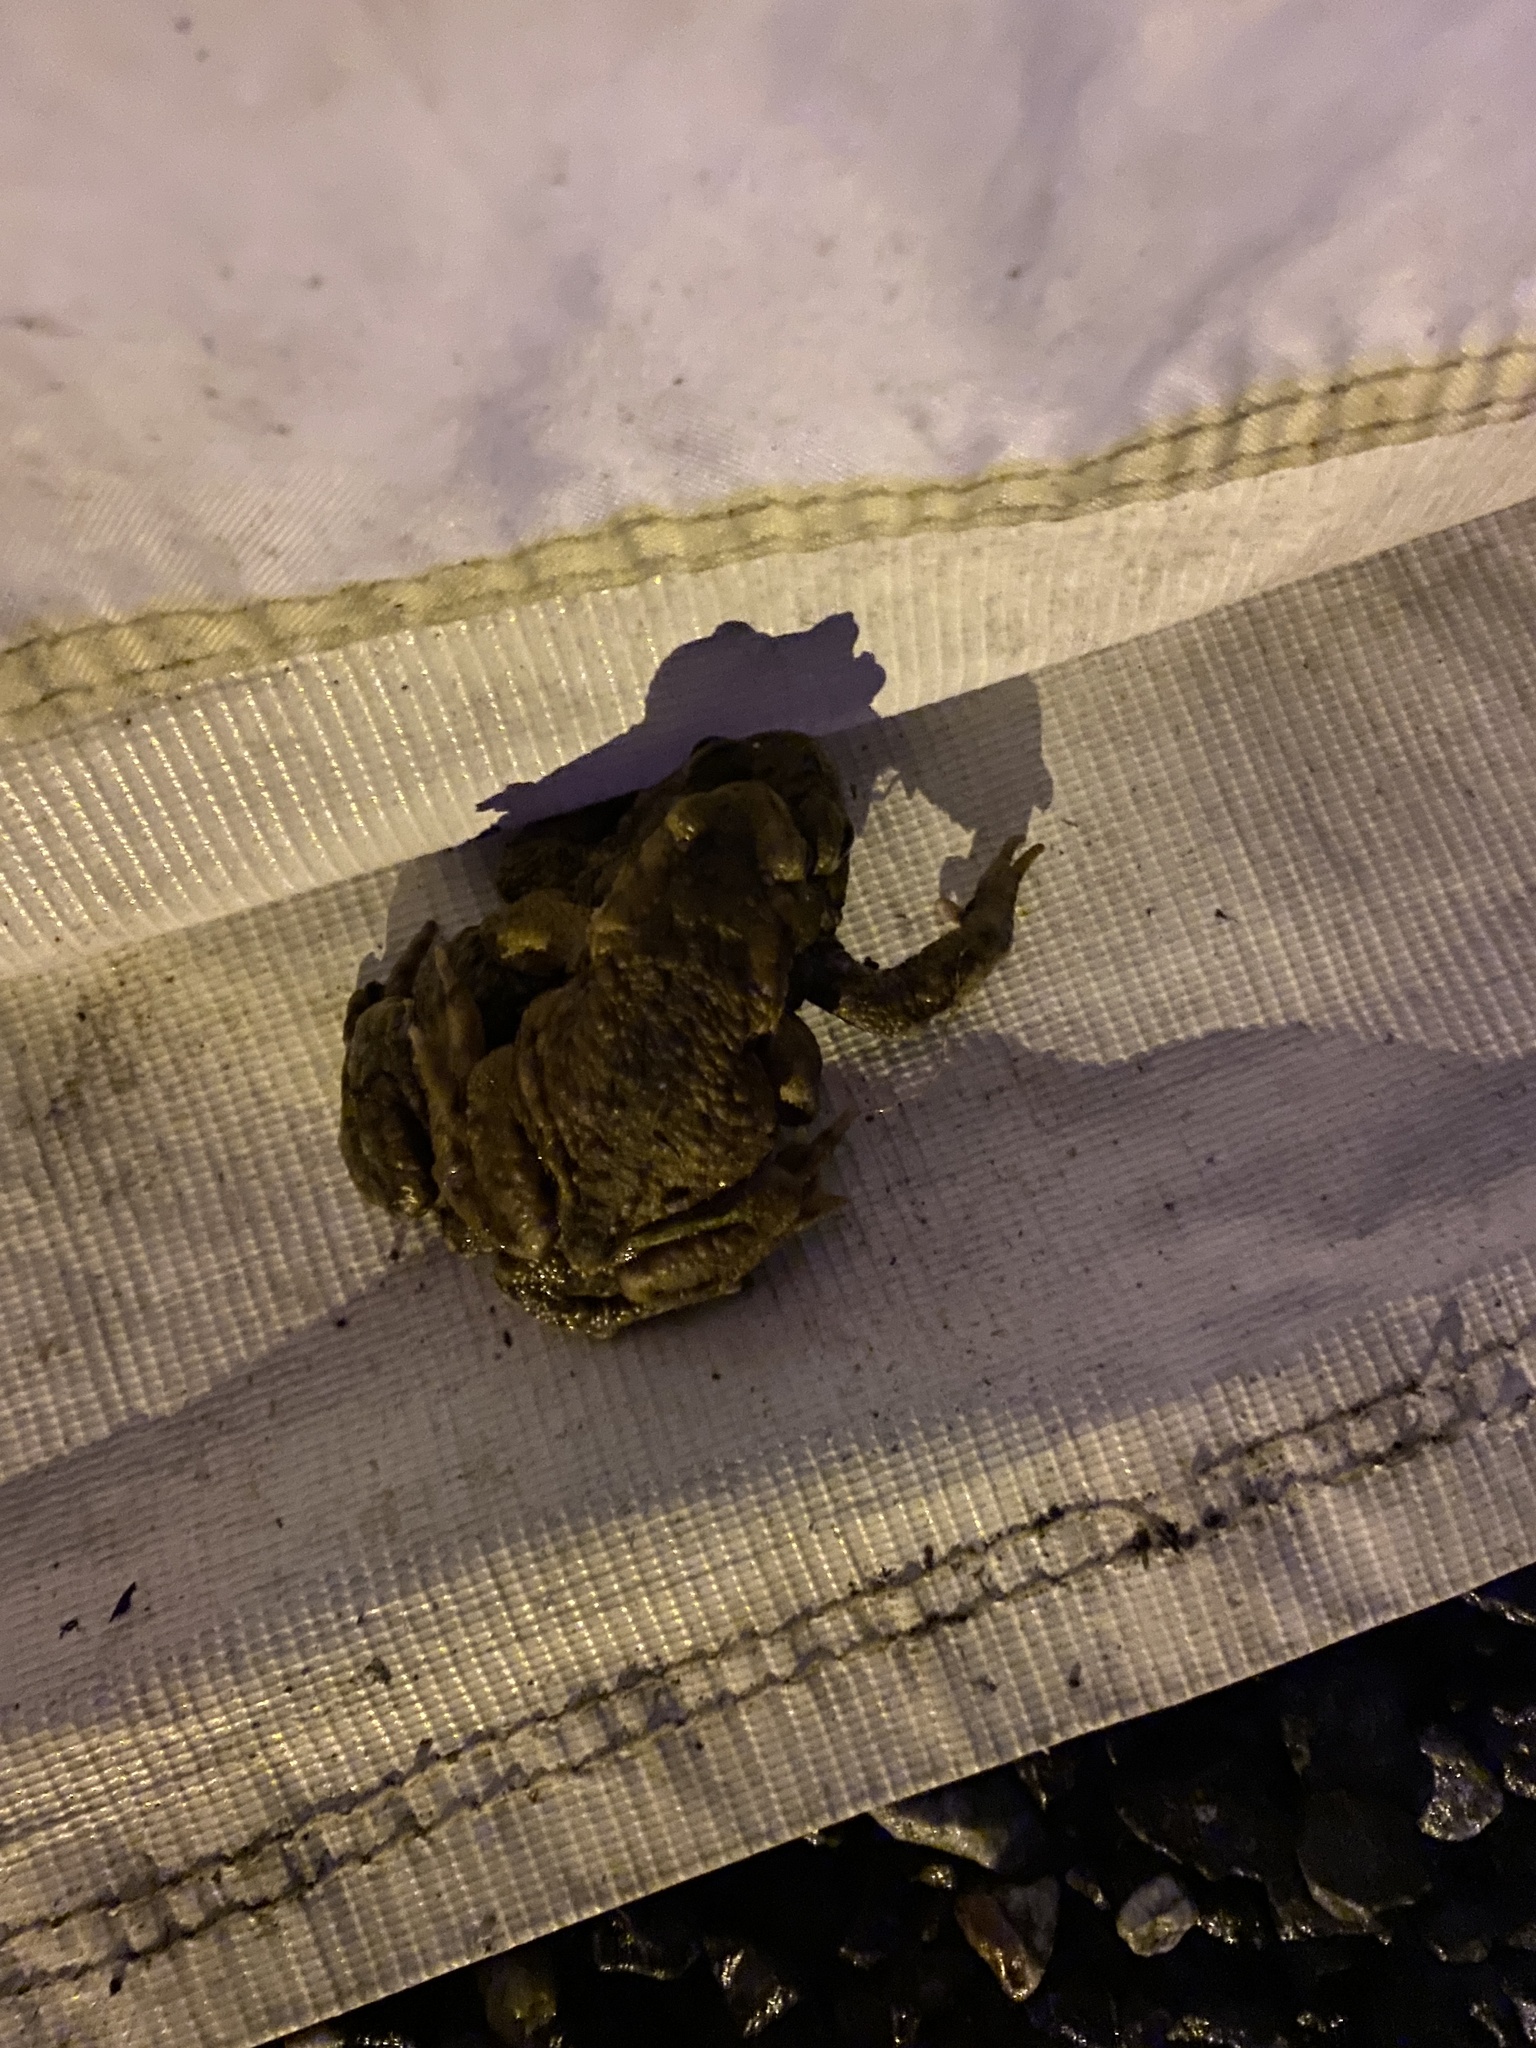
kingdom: Animalia
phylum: Chordata
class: Amphibia
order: Anura
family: Bufonidae
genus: Bufo
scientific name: Bufo bufo
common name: Common toad
